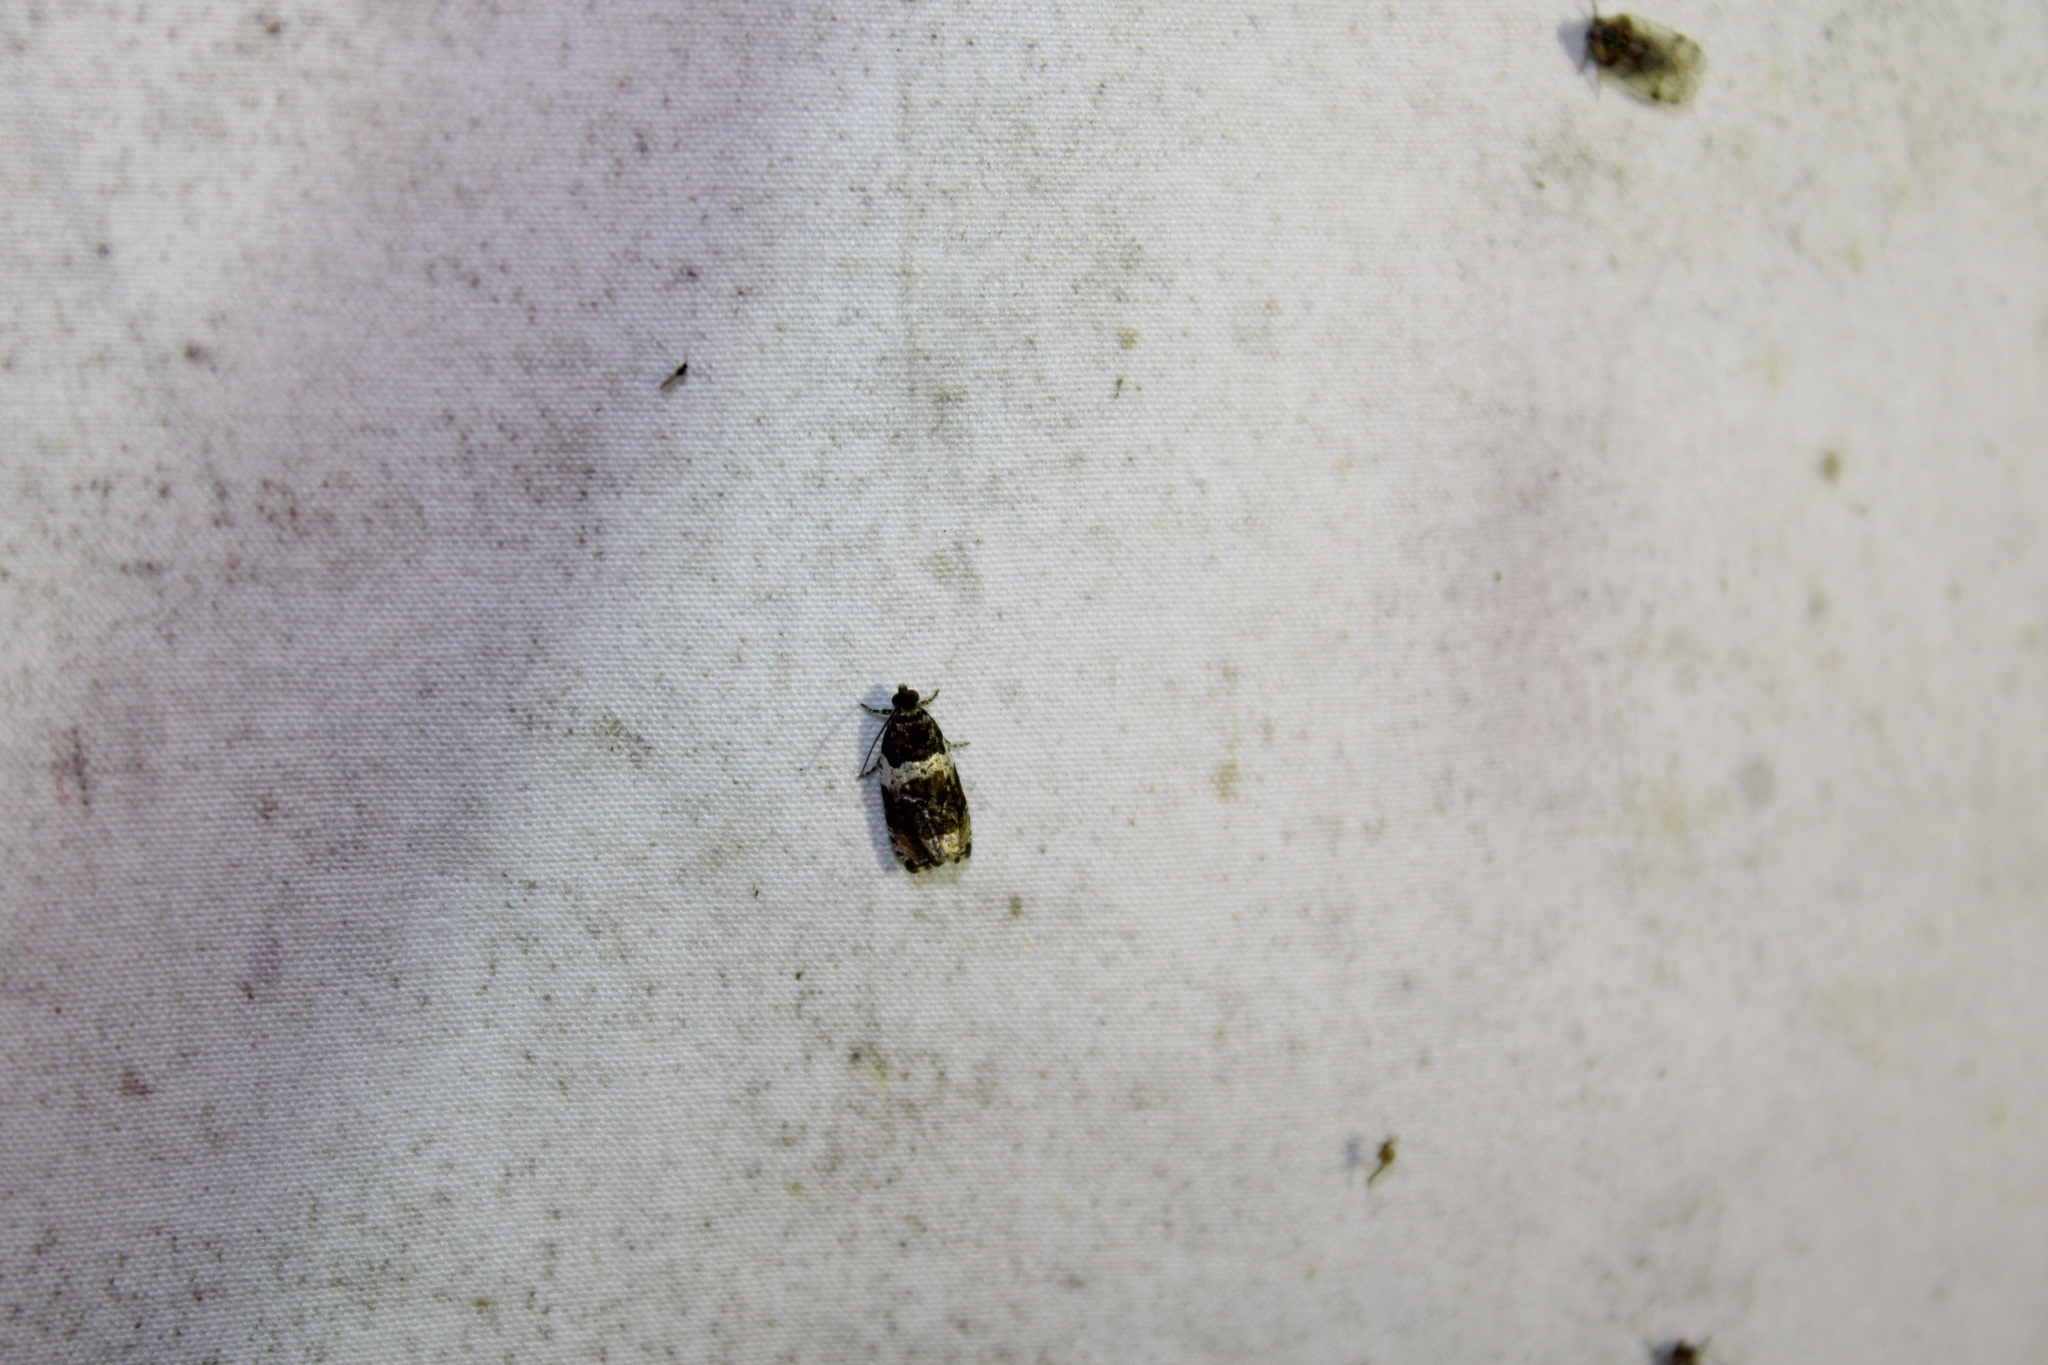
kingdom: Animalia
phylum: Arthropoda
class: Insecta
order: Lepidoptera
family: Tortricidae
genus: Olethreutes
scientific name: Olethreutes fasciatana
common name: Banded olethreutes moth
